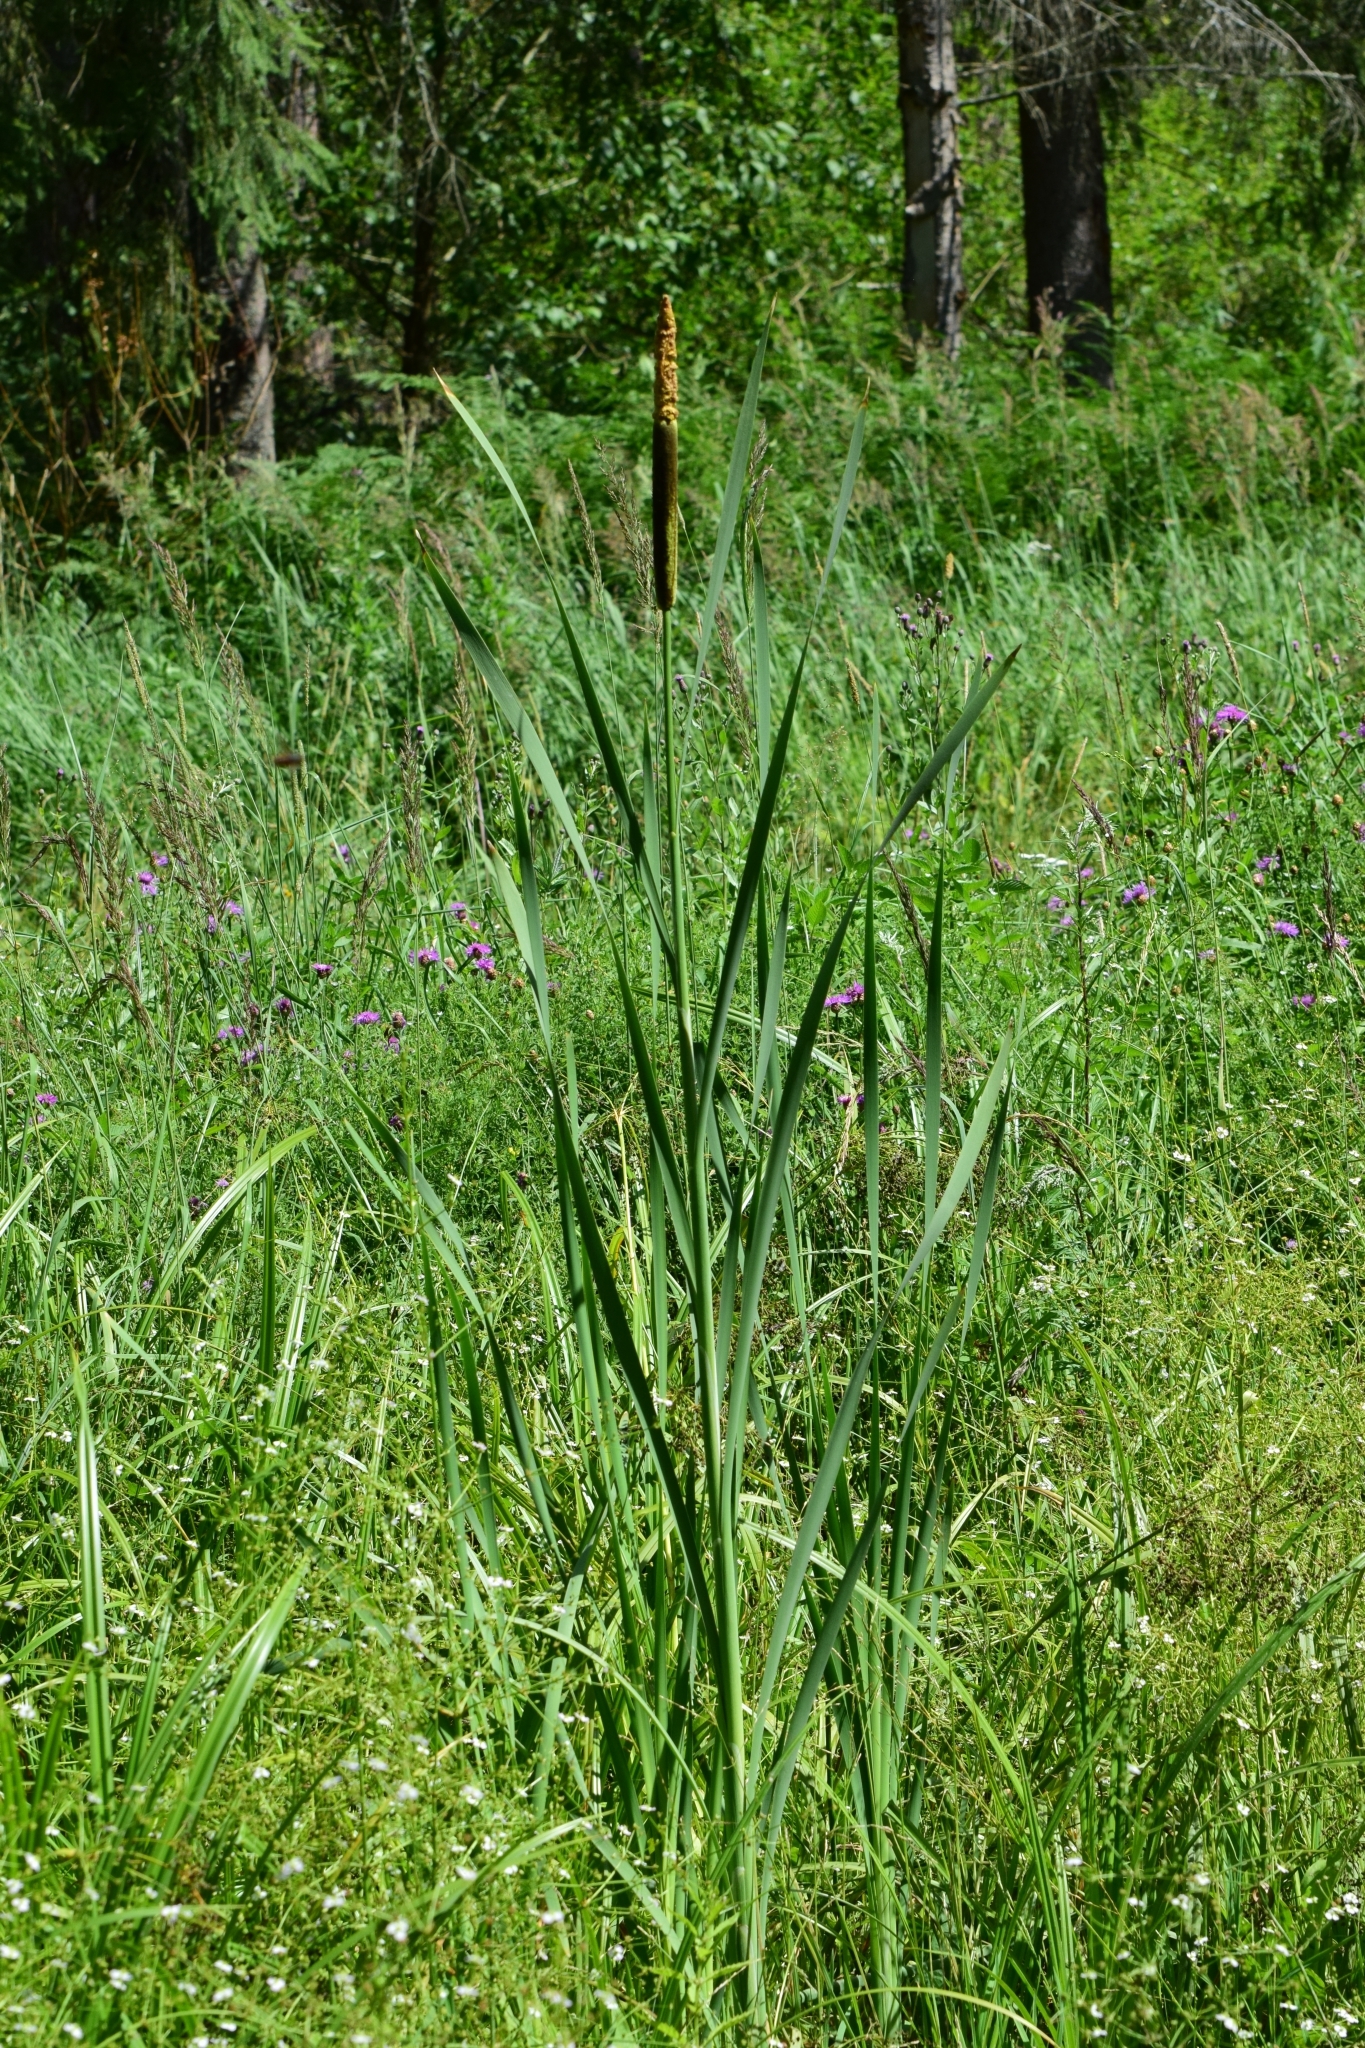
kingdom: Plantae
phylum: Tracheophyta
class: Liliopsida
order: Poales
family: Typhaceae
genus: Typha
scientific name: Typha latifolia
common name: Broadleaf cattail
